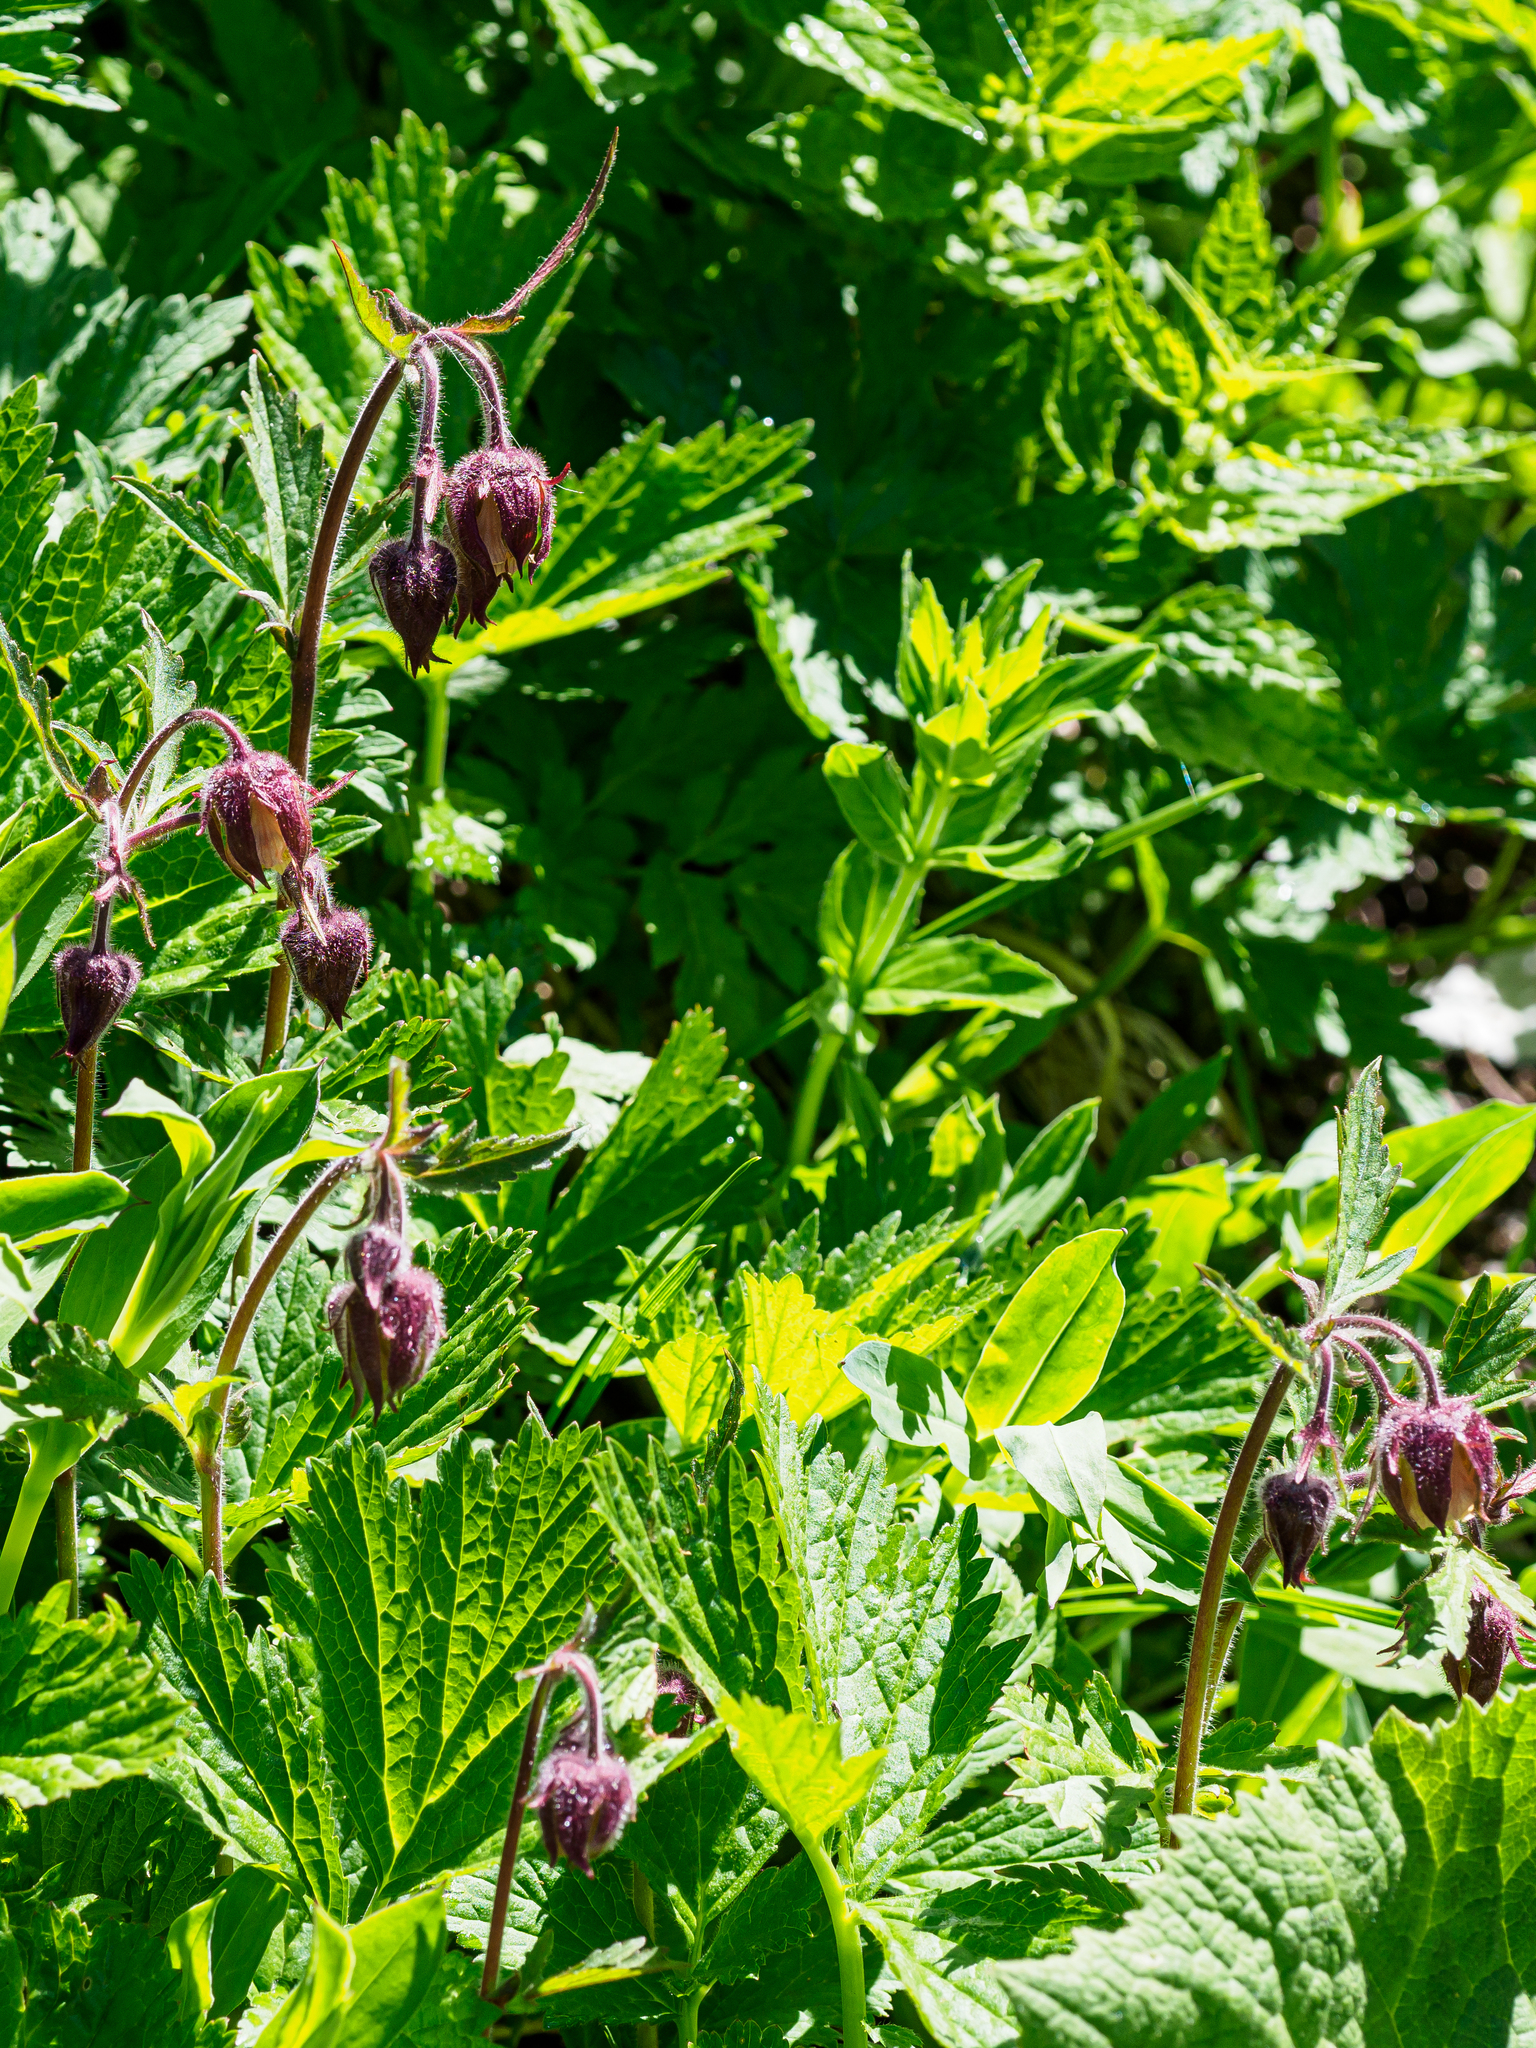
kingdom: Plantae
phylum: Tracheophyta
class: Magnoliopsida
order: Rosales
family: Rosaceae
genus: Geum
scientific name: Geum rivale
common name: Water avens
